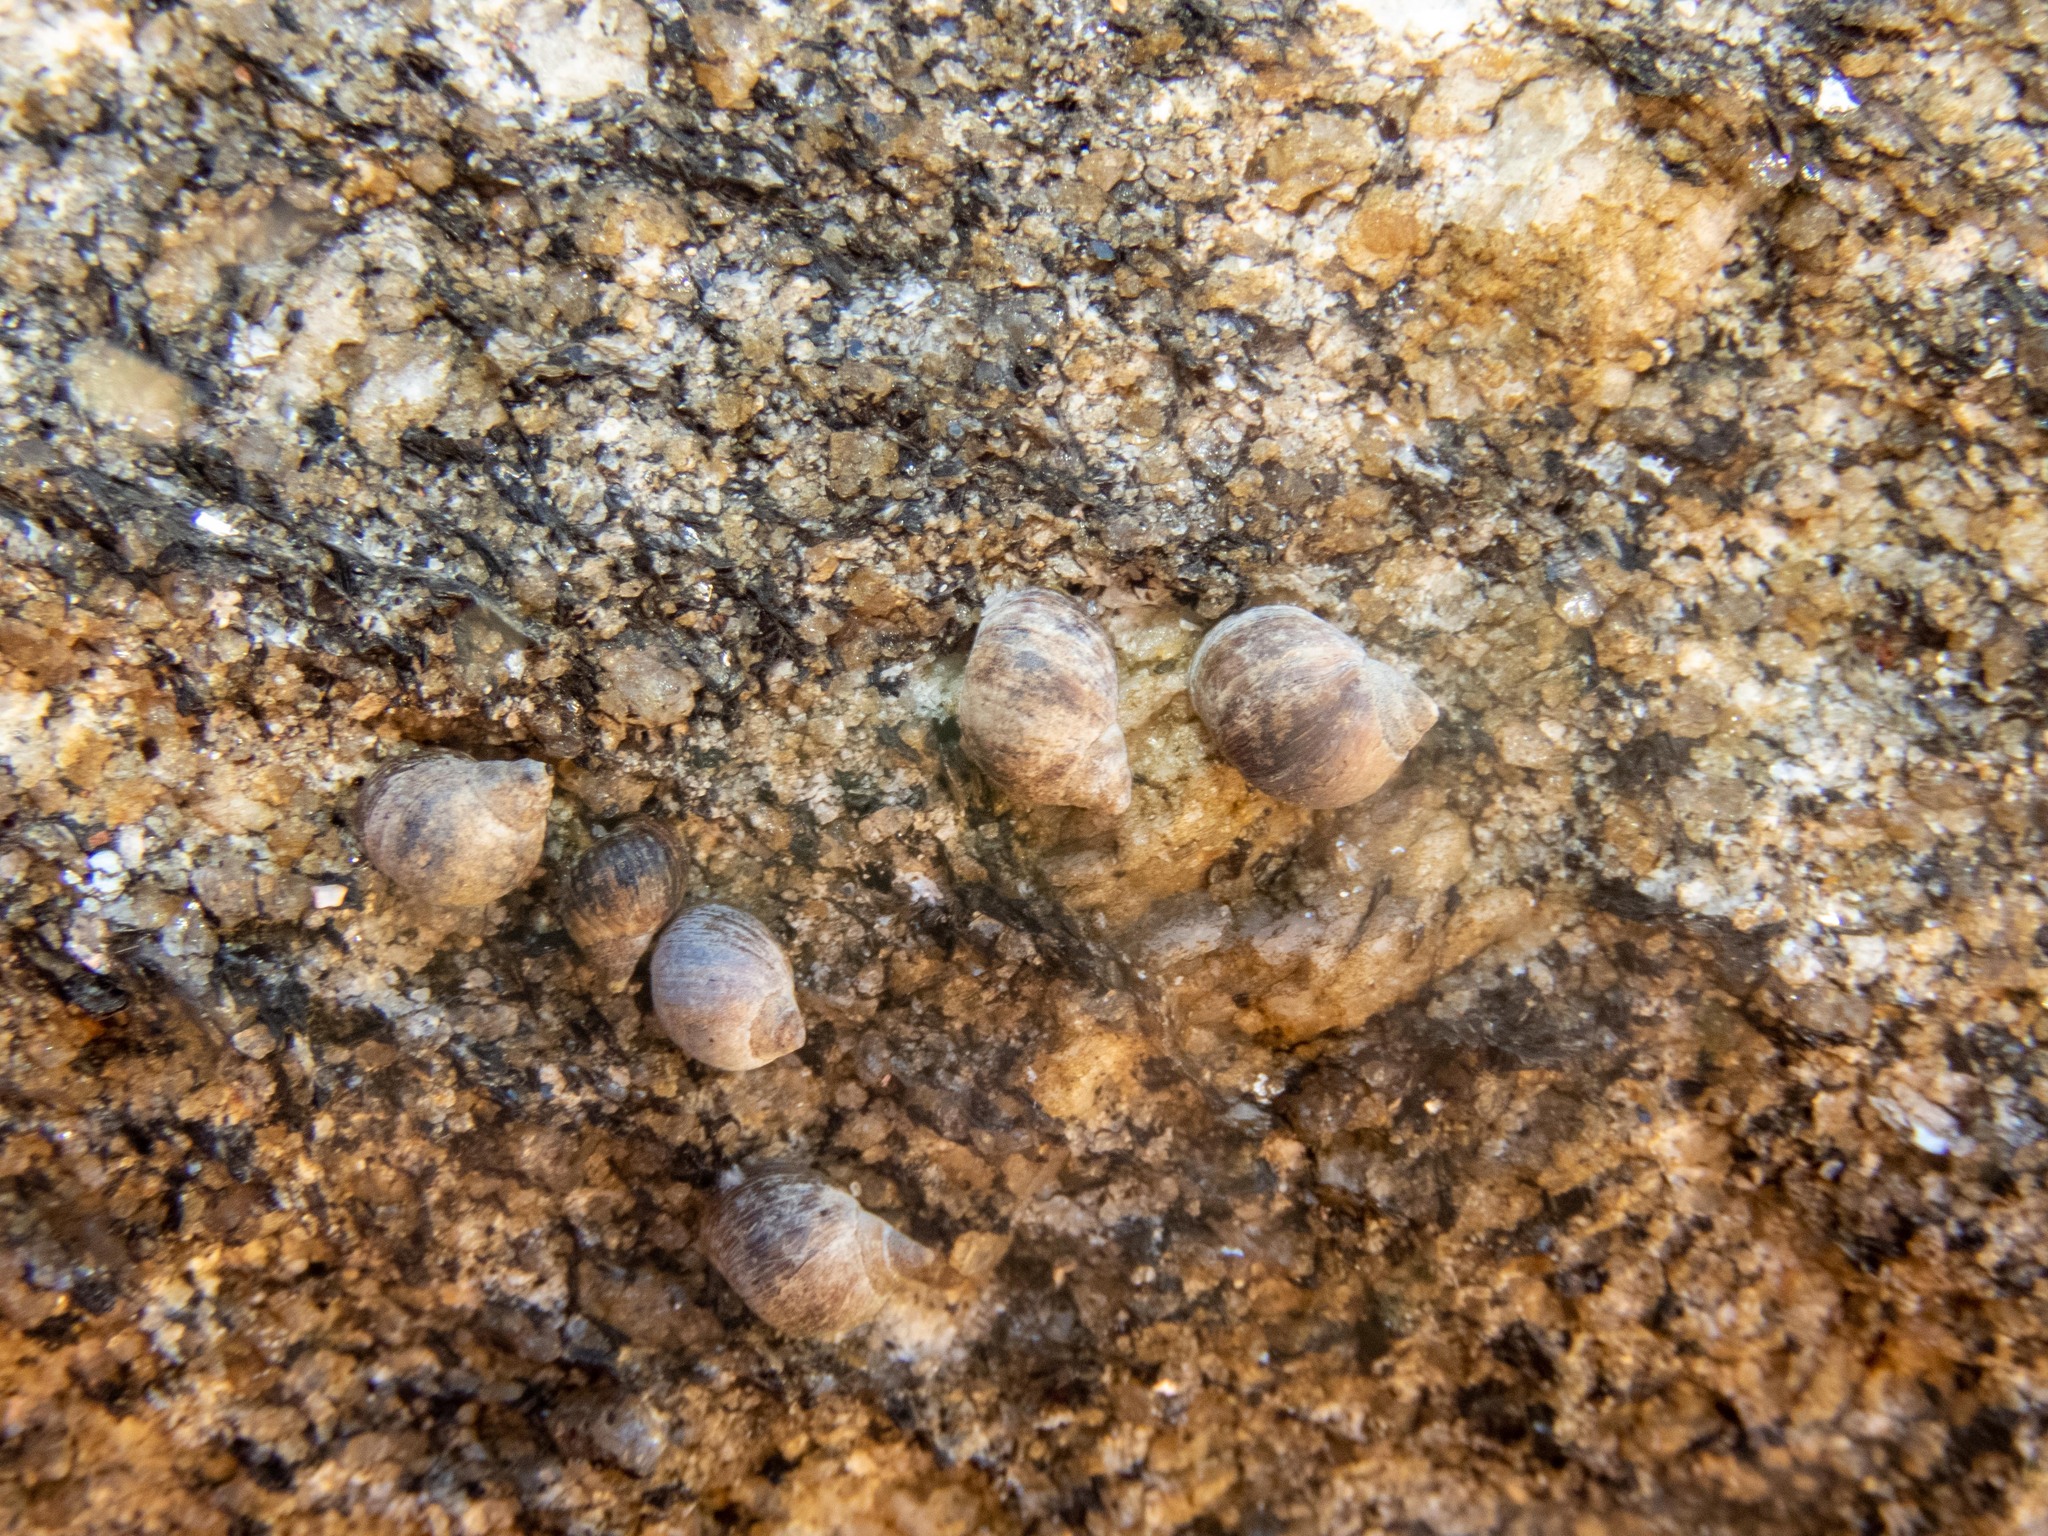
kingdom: Animalia
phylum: Mollusca
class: Gastropoda
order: Littorinimorpha
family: Littorinidae
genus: Littorina
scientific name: Littorina littorea
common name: Common periwinkle
